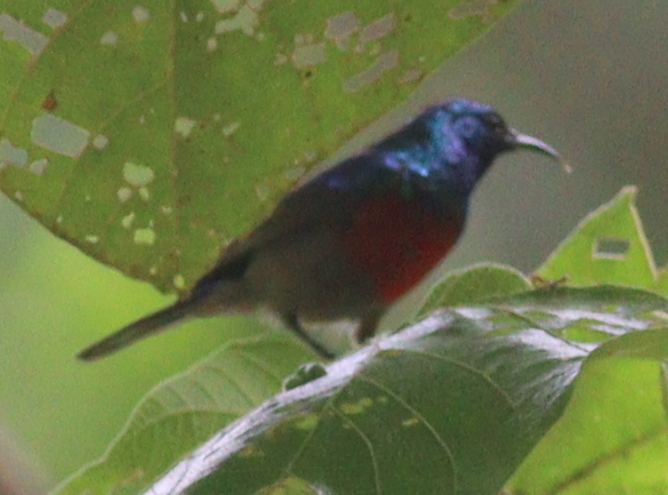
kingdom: Animalia
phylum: Chordata
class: Aves
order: Passeriformes
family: Nectariniidae
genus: Cinnyris
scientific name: Cinnyris reichenowi
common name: Northern double-collared sunbird
